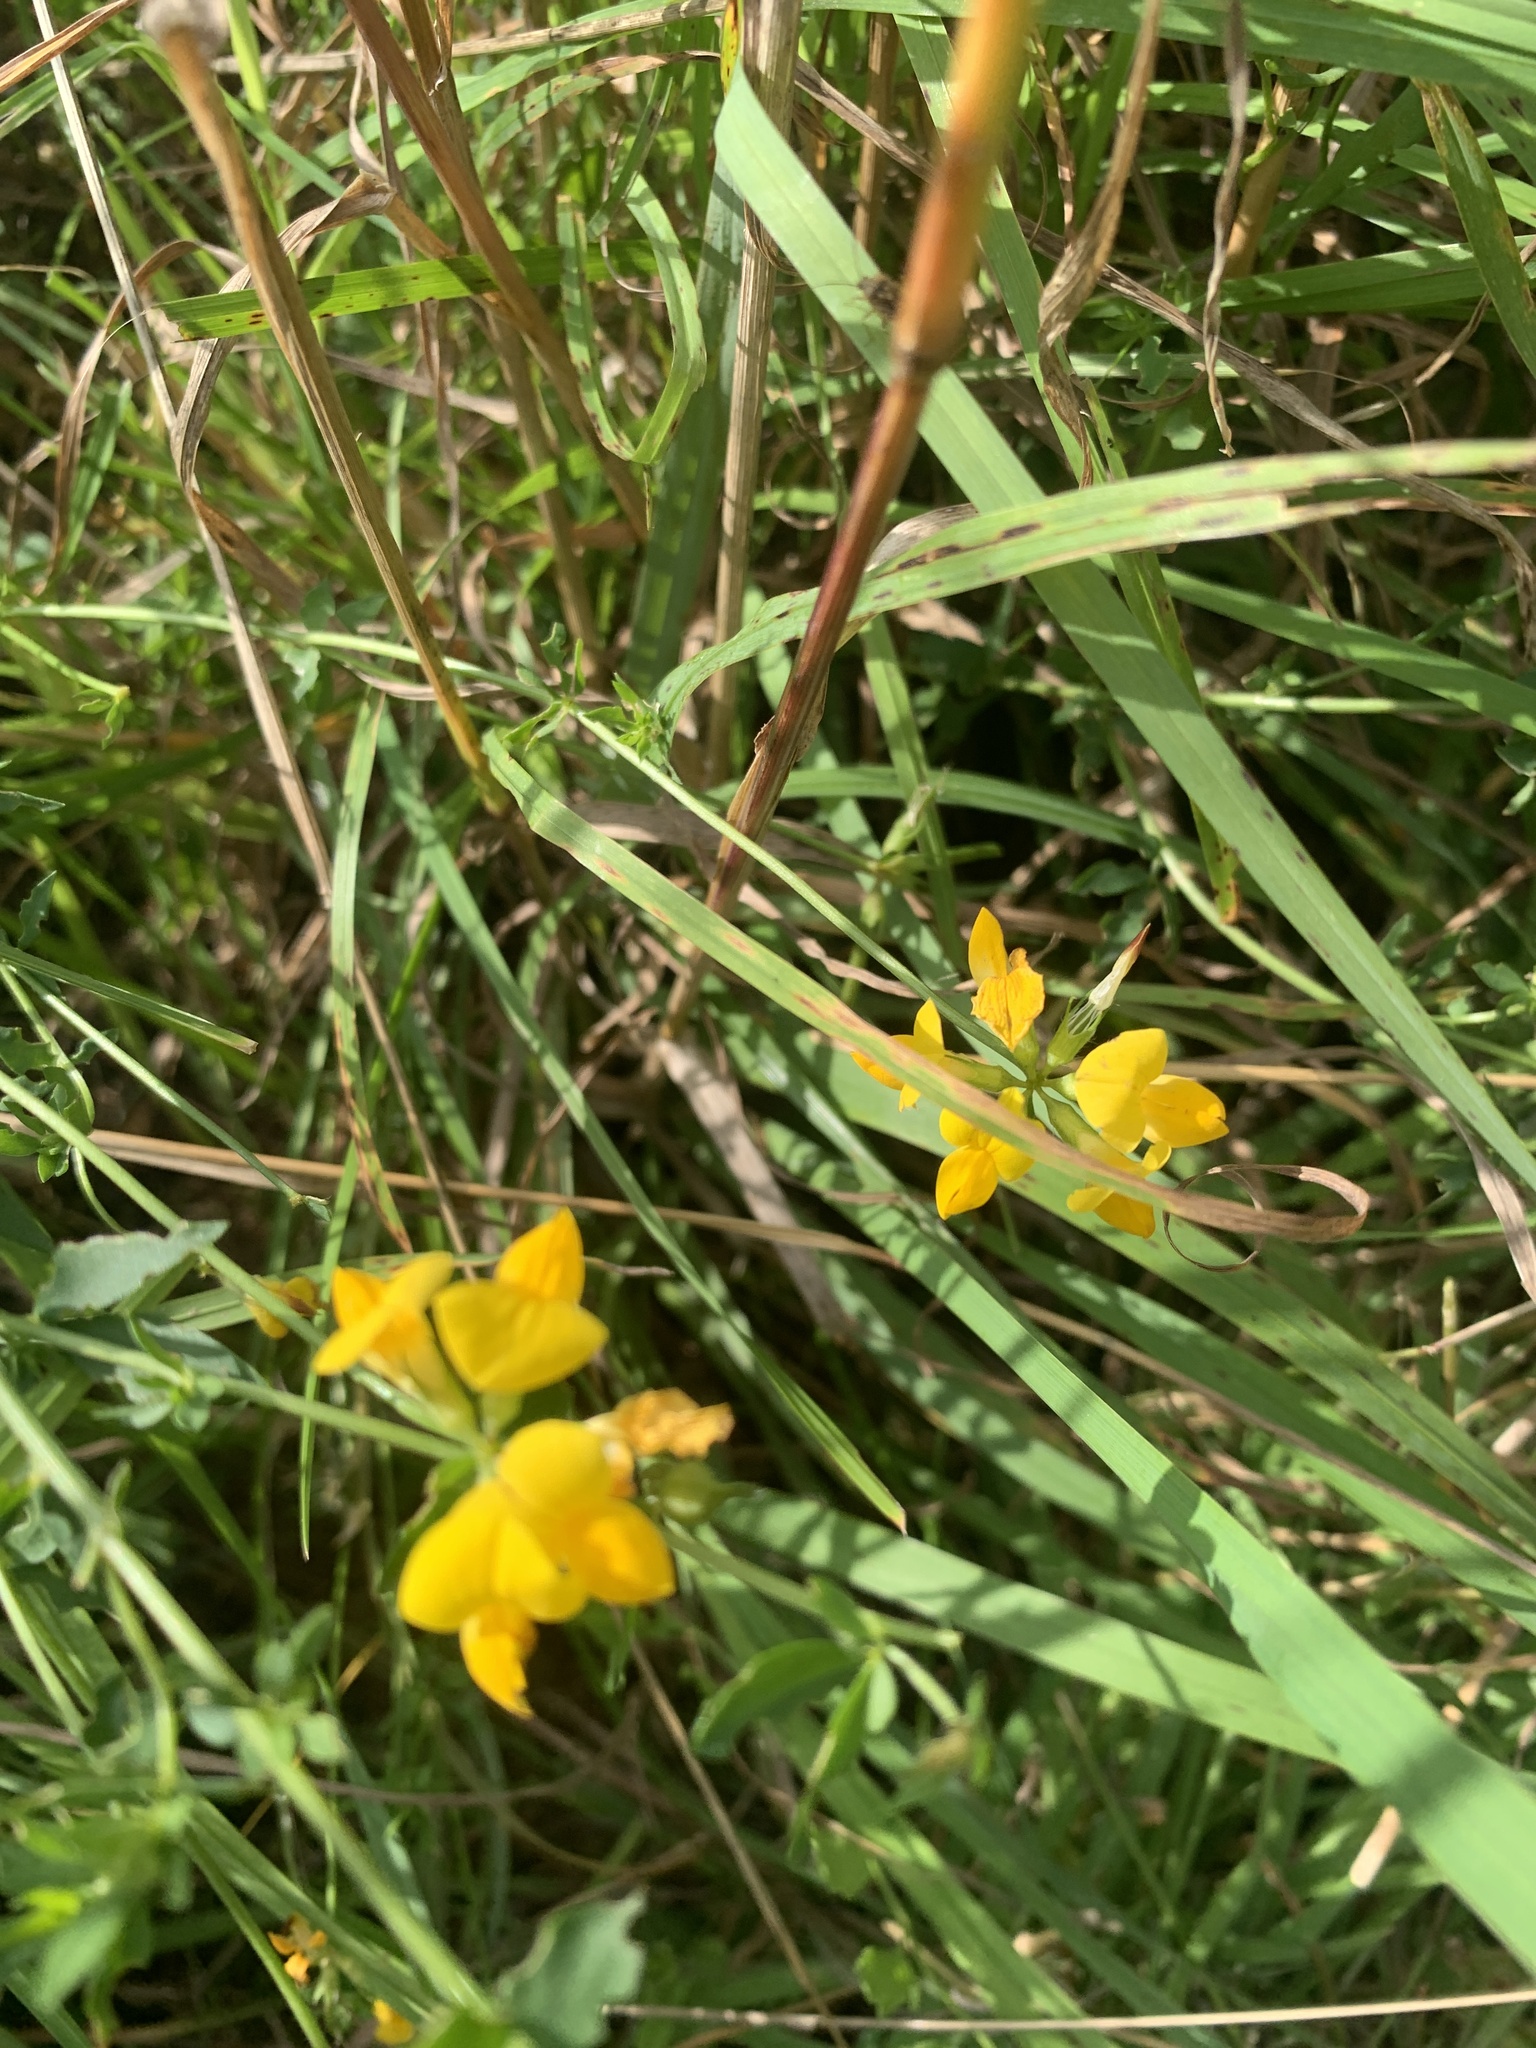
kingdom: Plantae
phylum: Tracheophyta
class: Magnoliopsida
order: Fabales
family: Fabaceae
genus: Lotus
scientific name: Lotus corniculatus
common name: Common bird's-foot-trefoil
